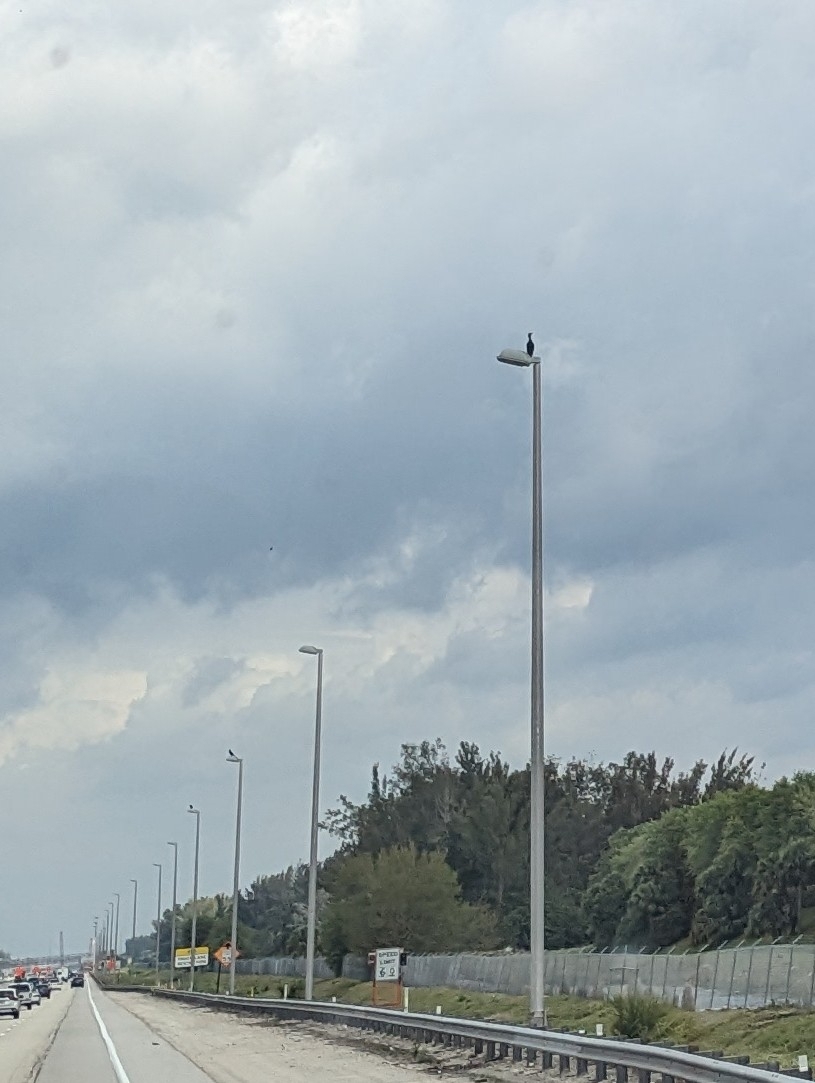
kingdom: Animalia
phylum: Chordata
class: Aves
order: Suliformes
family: Phalacrocoracidae
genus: Phalacrocorax
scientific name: Phalacrocorax auritus
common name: Double-crested cormorant
